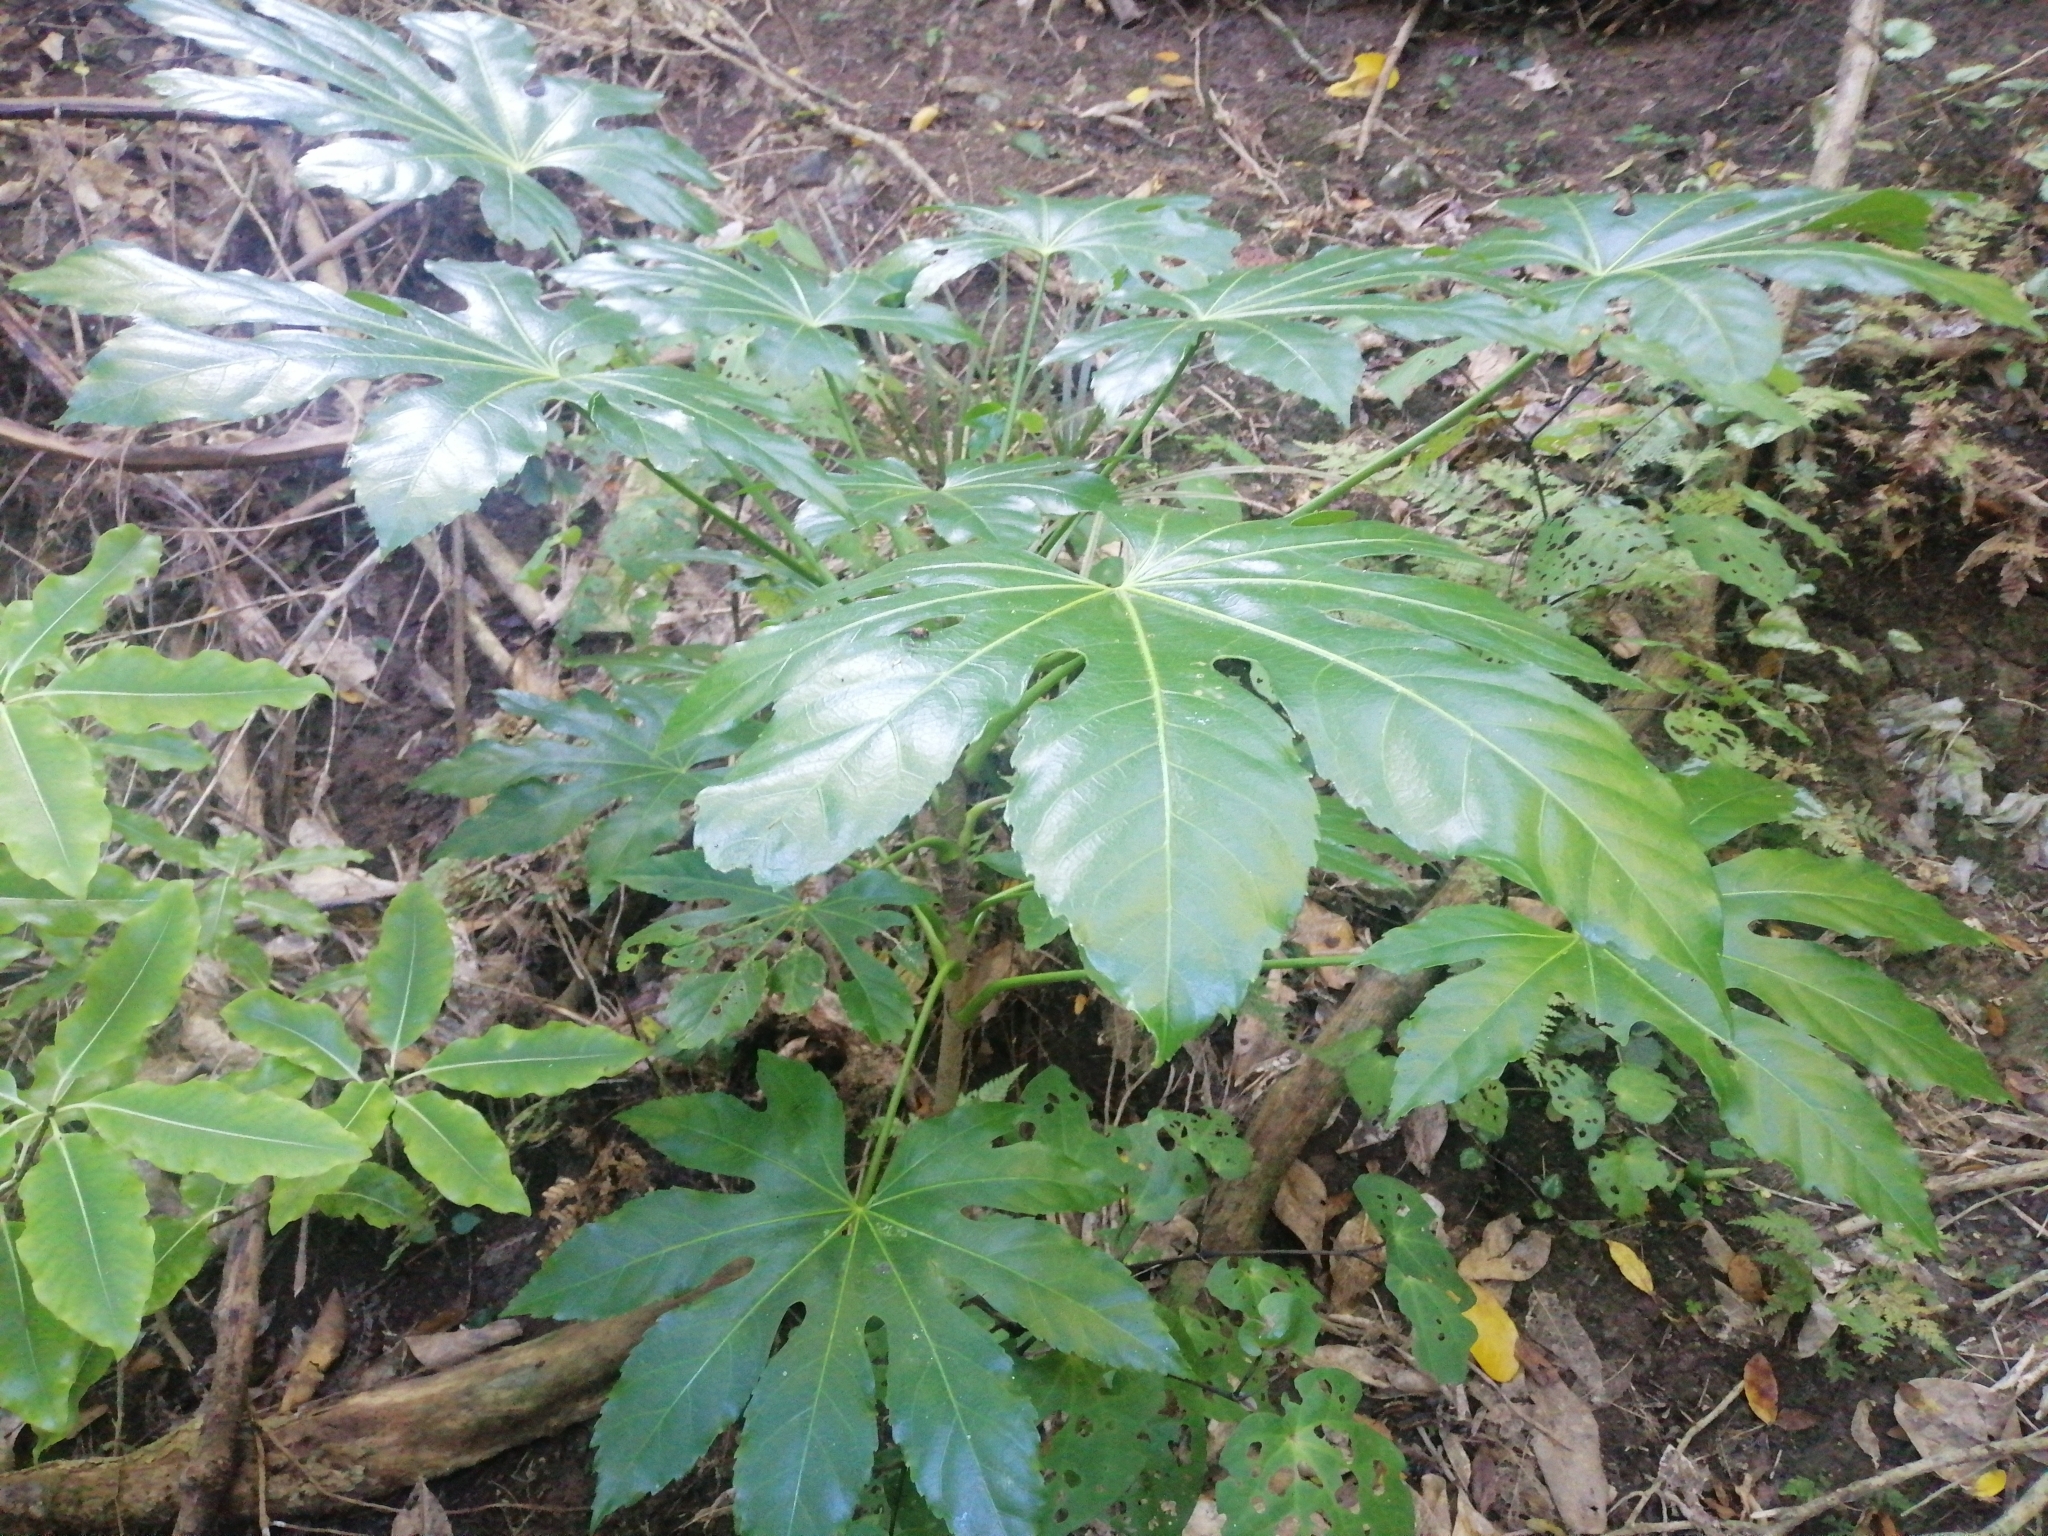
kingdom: Plantae
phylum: Tracheophyta
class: Magnoliopsida
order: Apiales
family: Araliaceae
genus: Fatsia
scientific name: Fatsia japonica
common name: Fatsia
